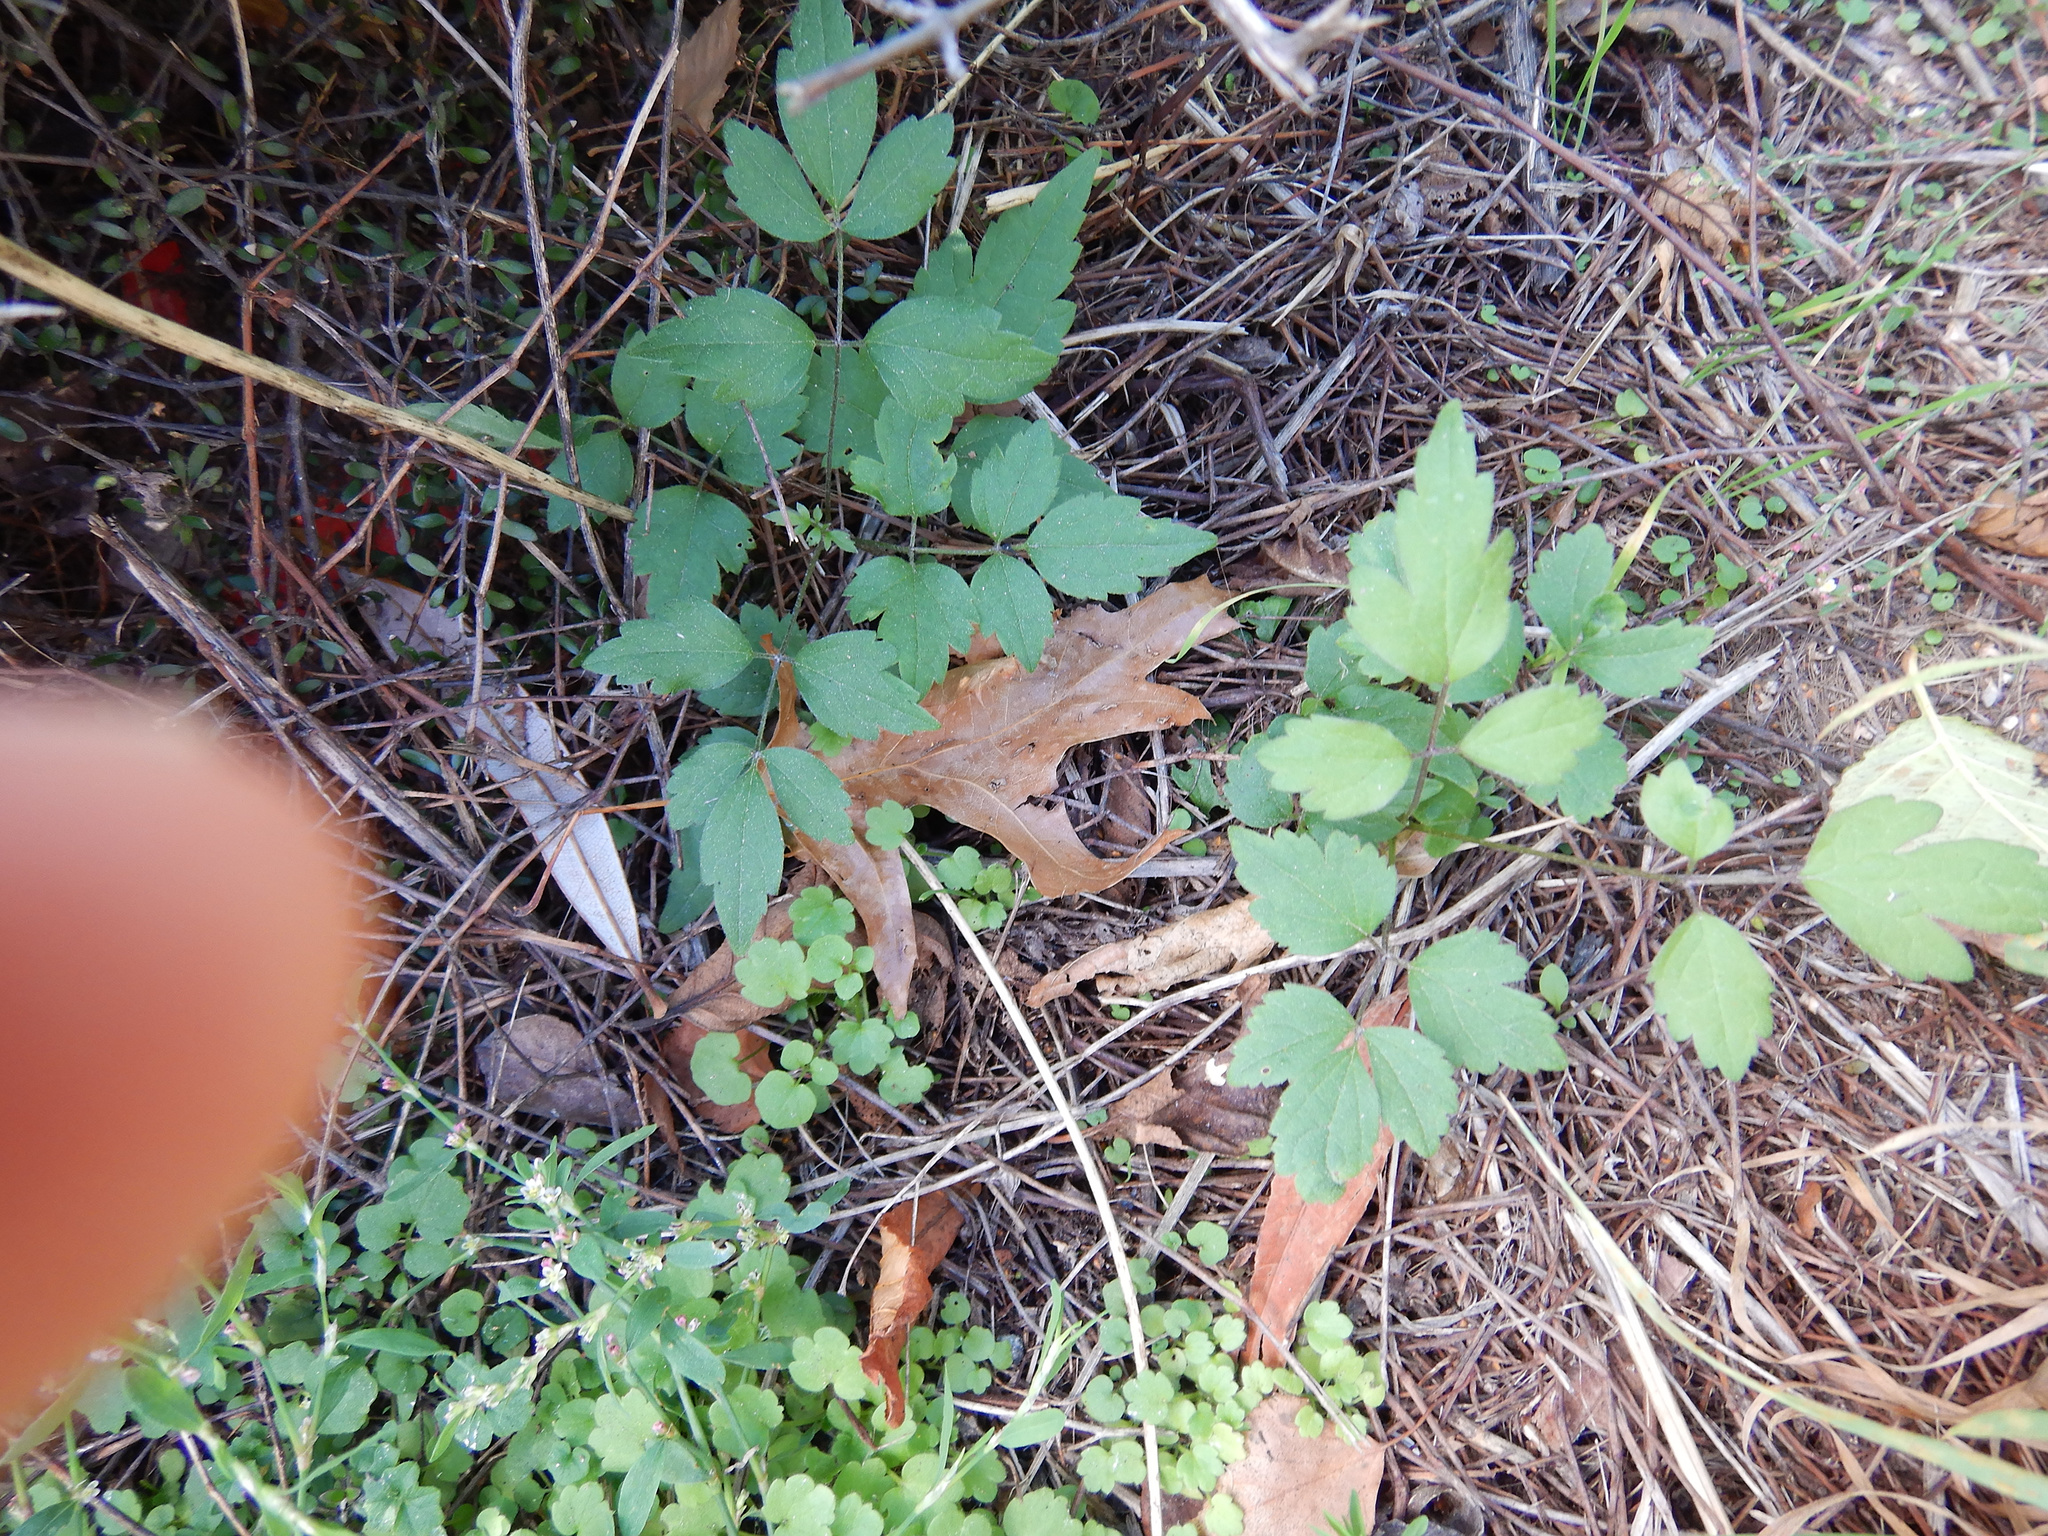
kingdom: Plantae
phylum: Tracheophyta
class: Magnoliopsida
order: Ranunculales
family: Ranunculaceae
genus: Clematis
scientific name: Clematis vitalba
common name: Evergreen clematis
